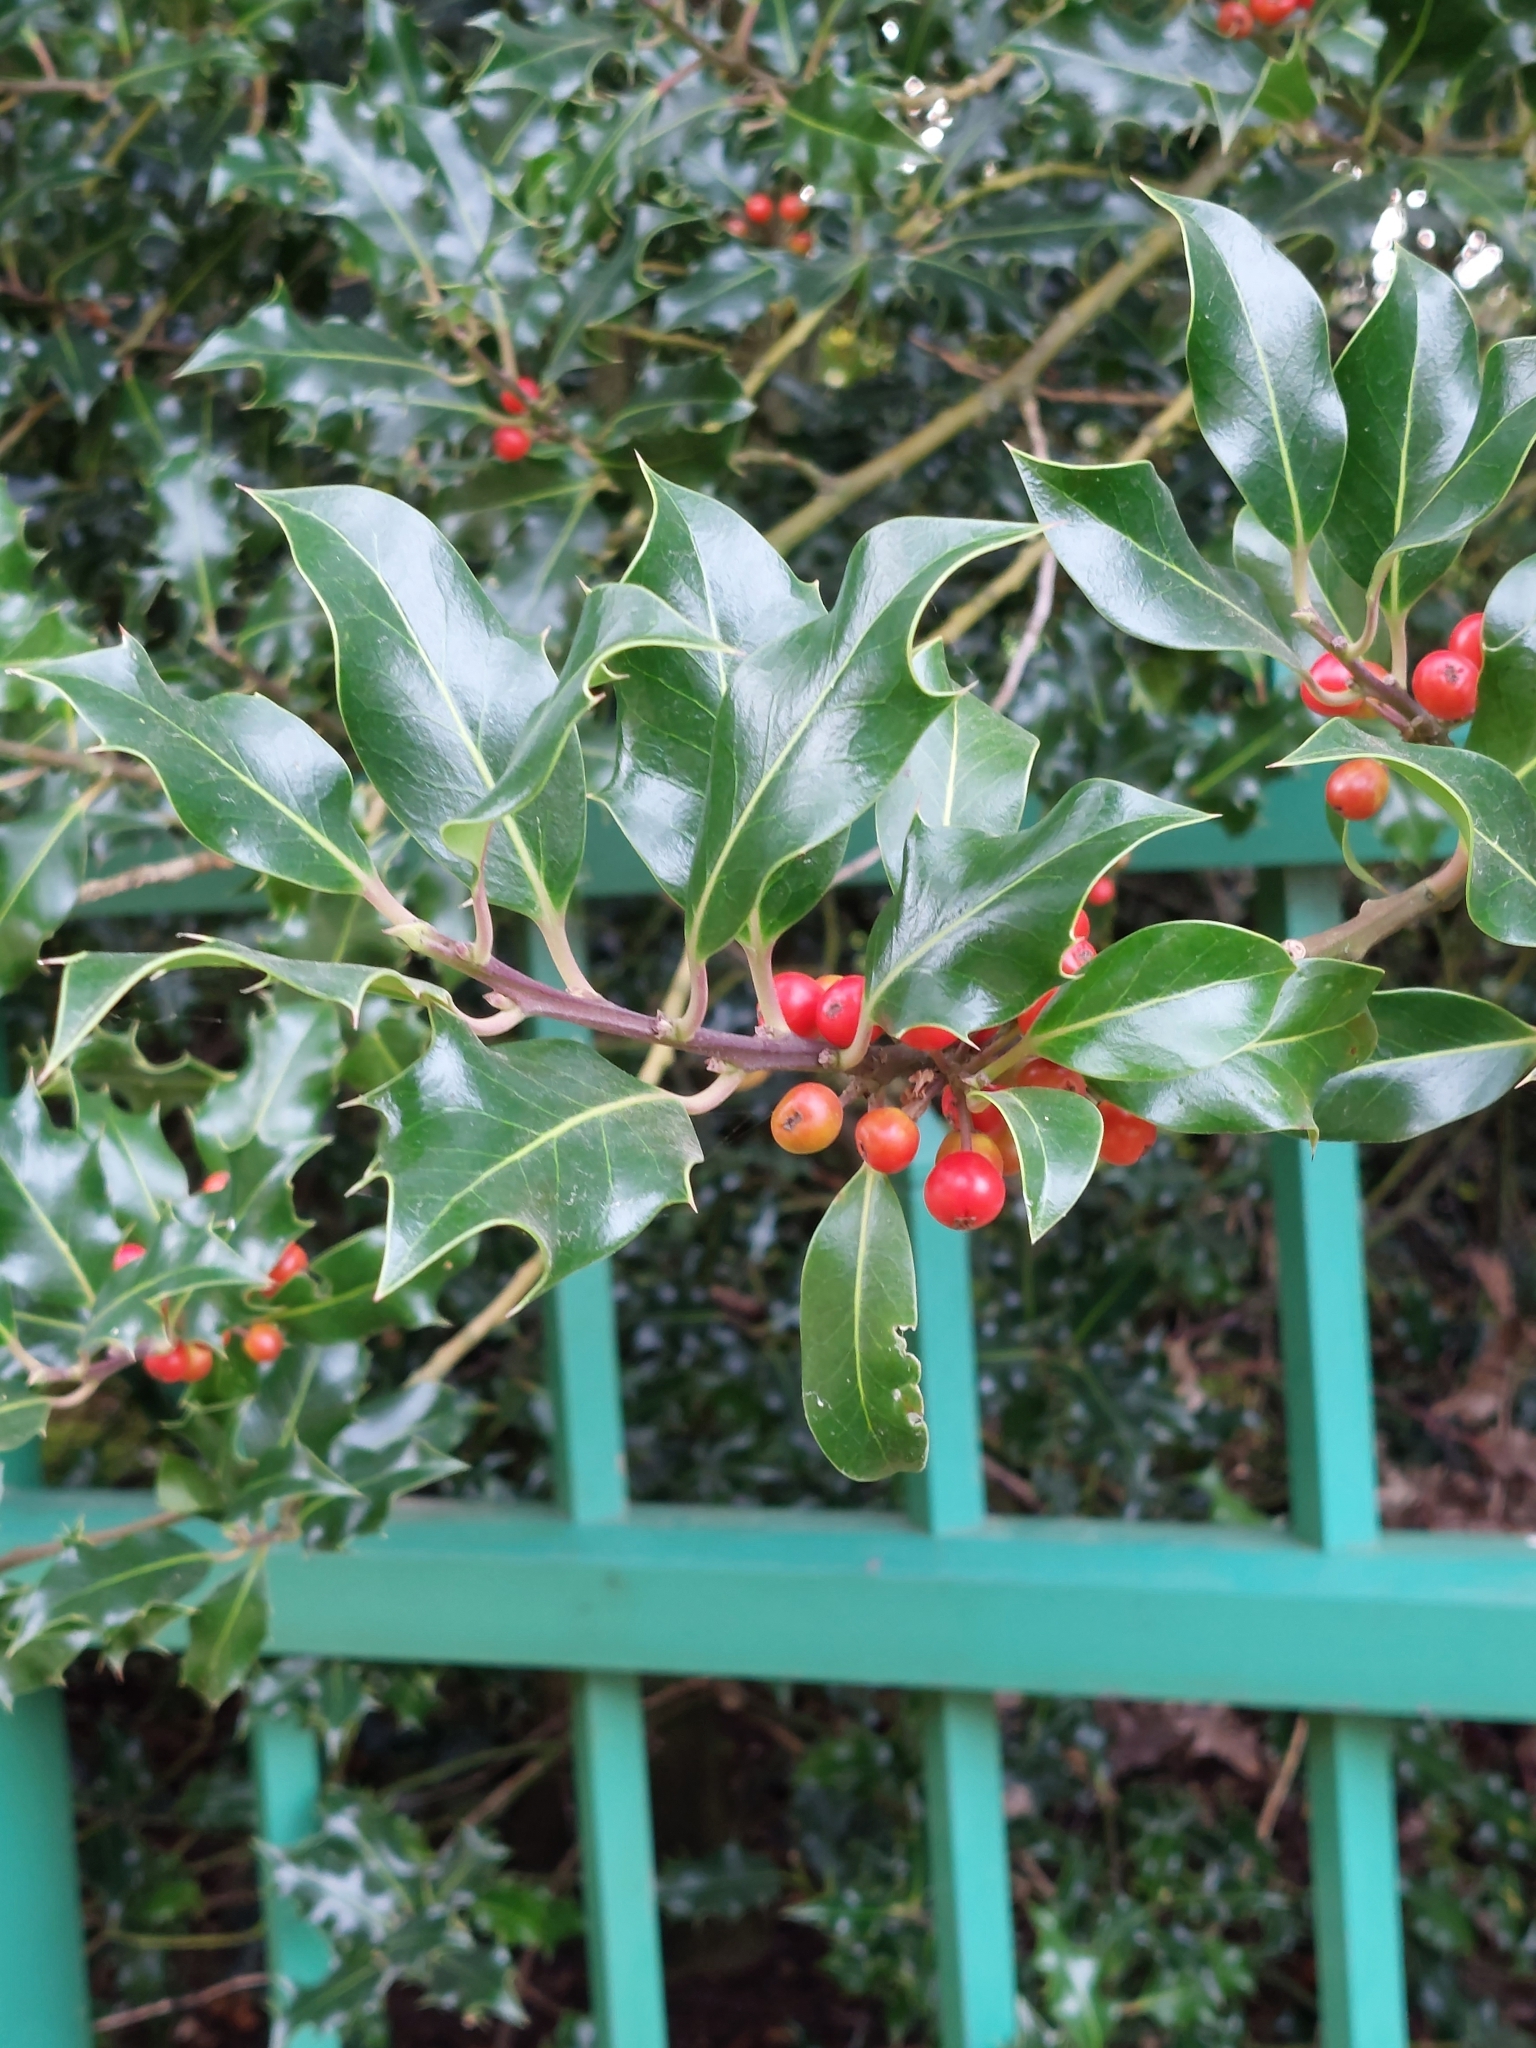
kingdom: Plantae
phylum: Tracheophyta
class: Magnoliopsida
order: Aquifoliales
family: Aquifoliaceae
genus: Ilex
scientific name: Ilex aquifolium
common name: English holly
